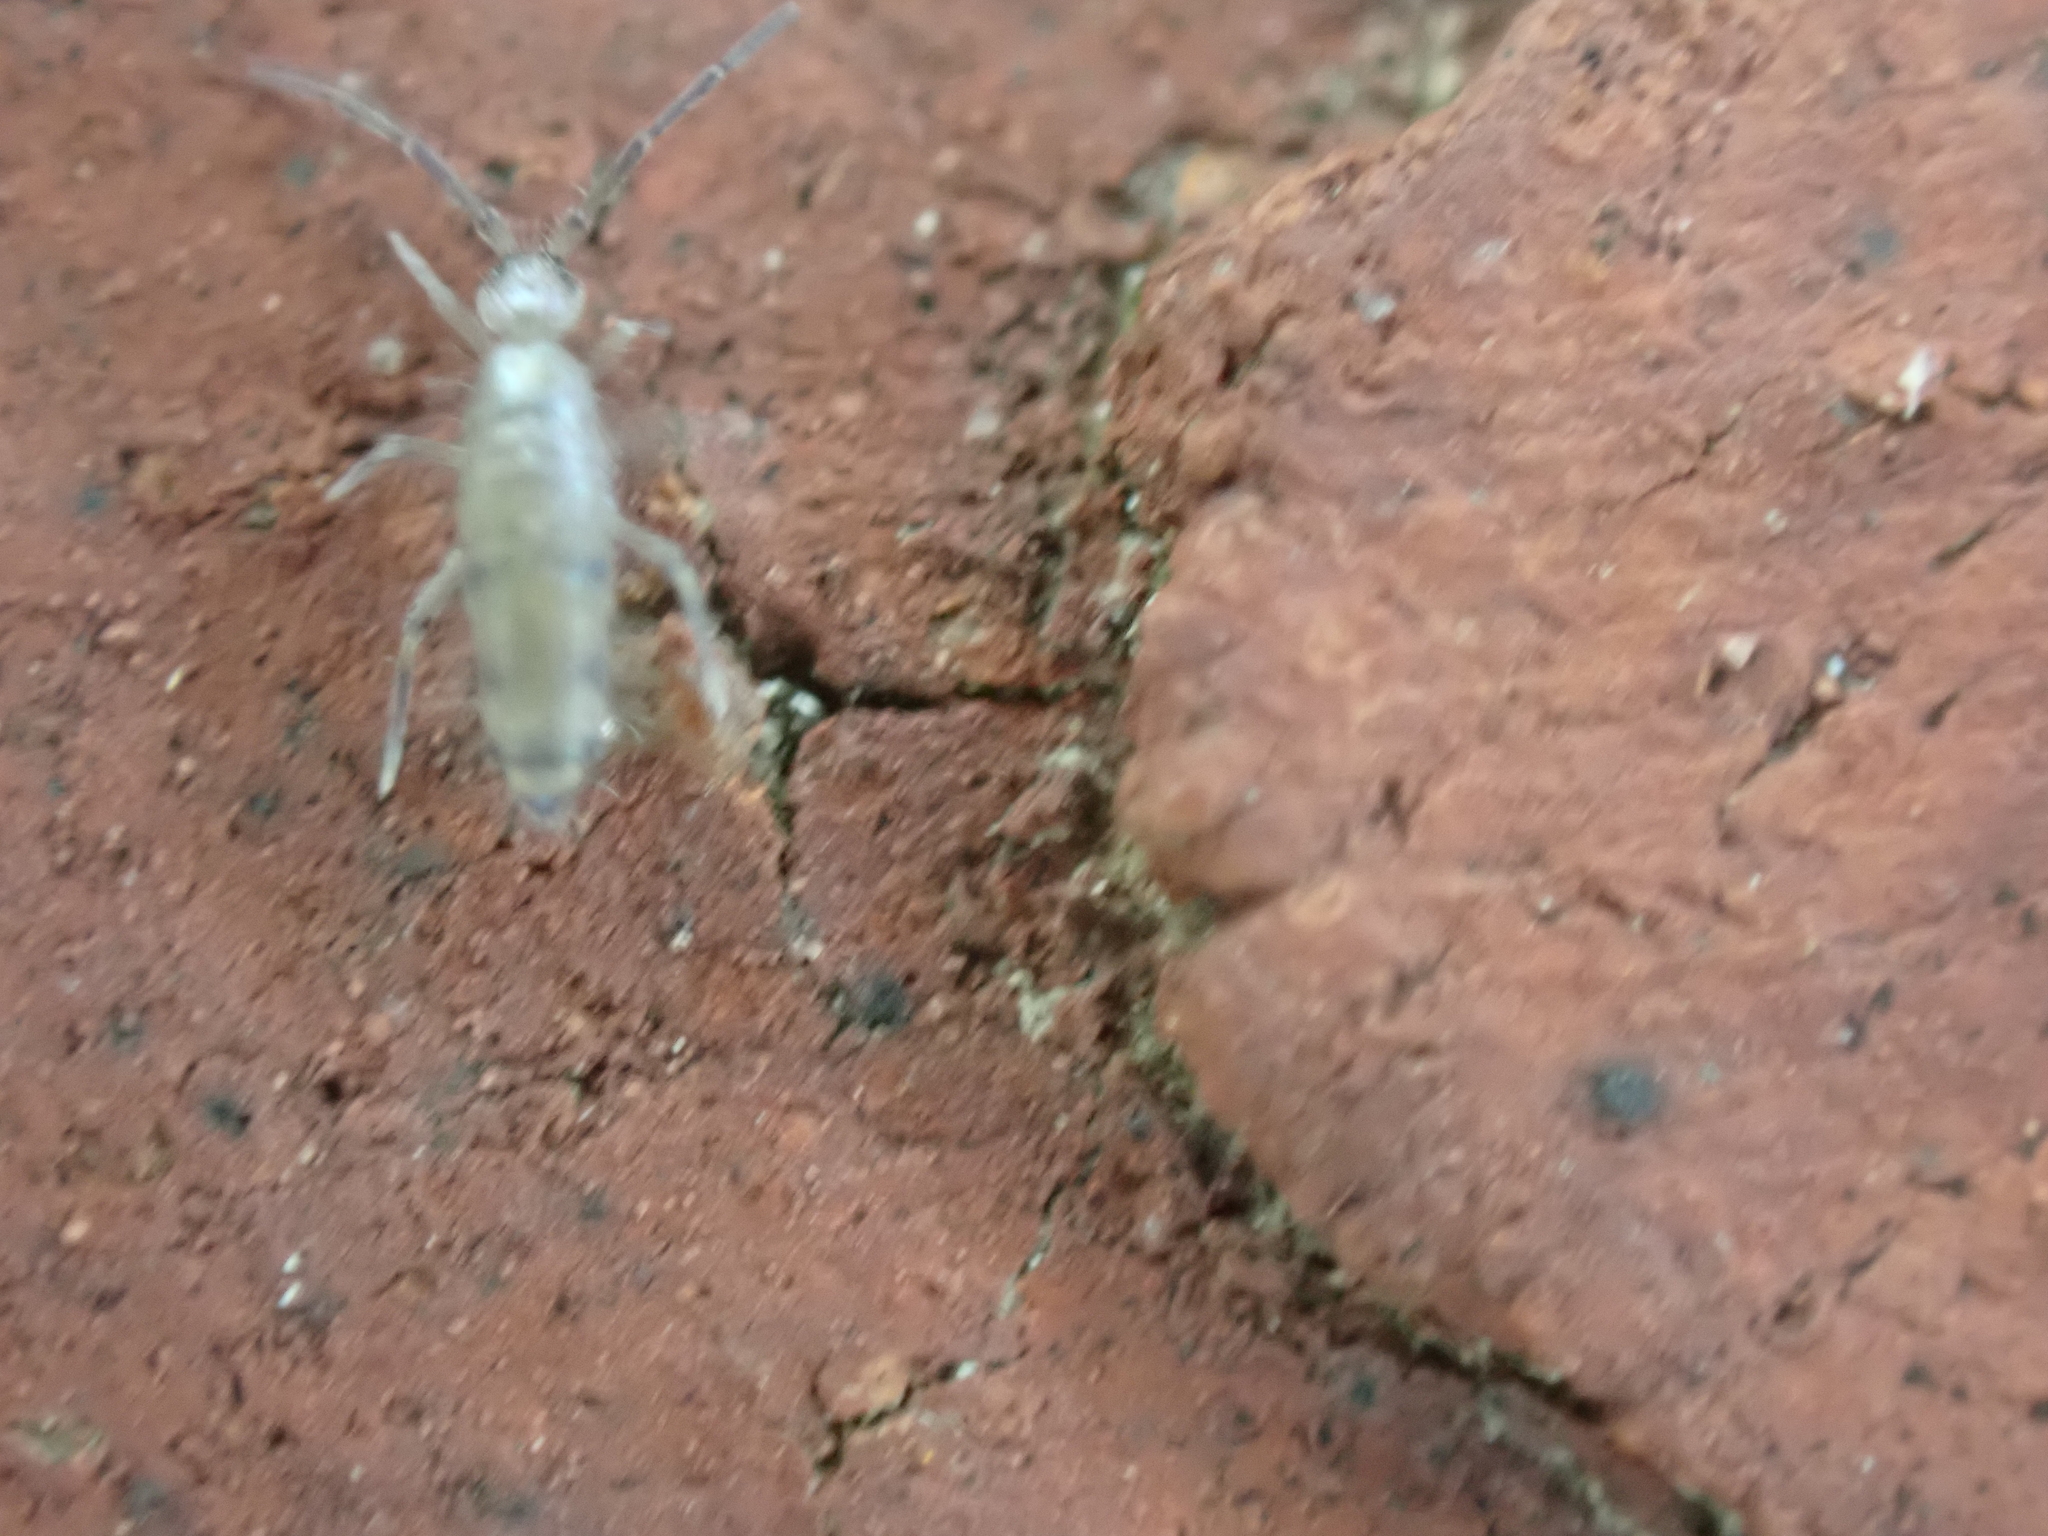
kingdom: Animalia
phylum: Arthropoda
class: Collembola
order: Entomobryomorpha
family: Entomobryidae
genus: Willowsia
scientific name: Willowsia nigromaculata
